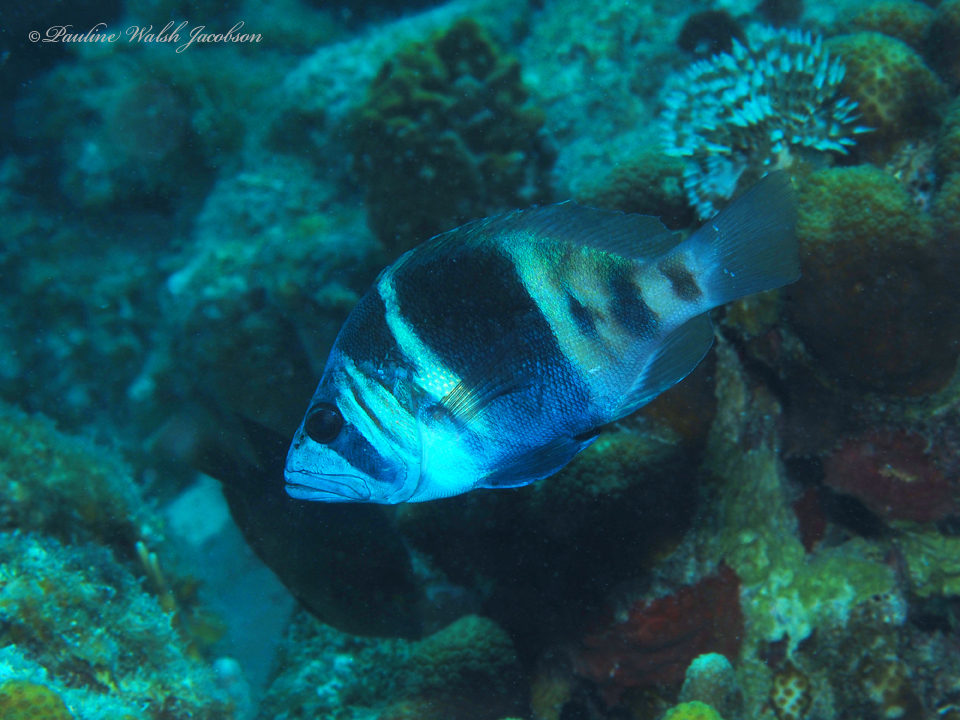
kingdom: Animalia
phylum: Chordata
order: Perciformes
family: Serranidae
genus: Hypoplectrus
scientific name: Hypoplectrus indigo
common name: Indigo hamlet
